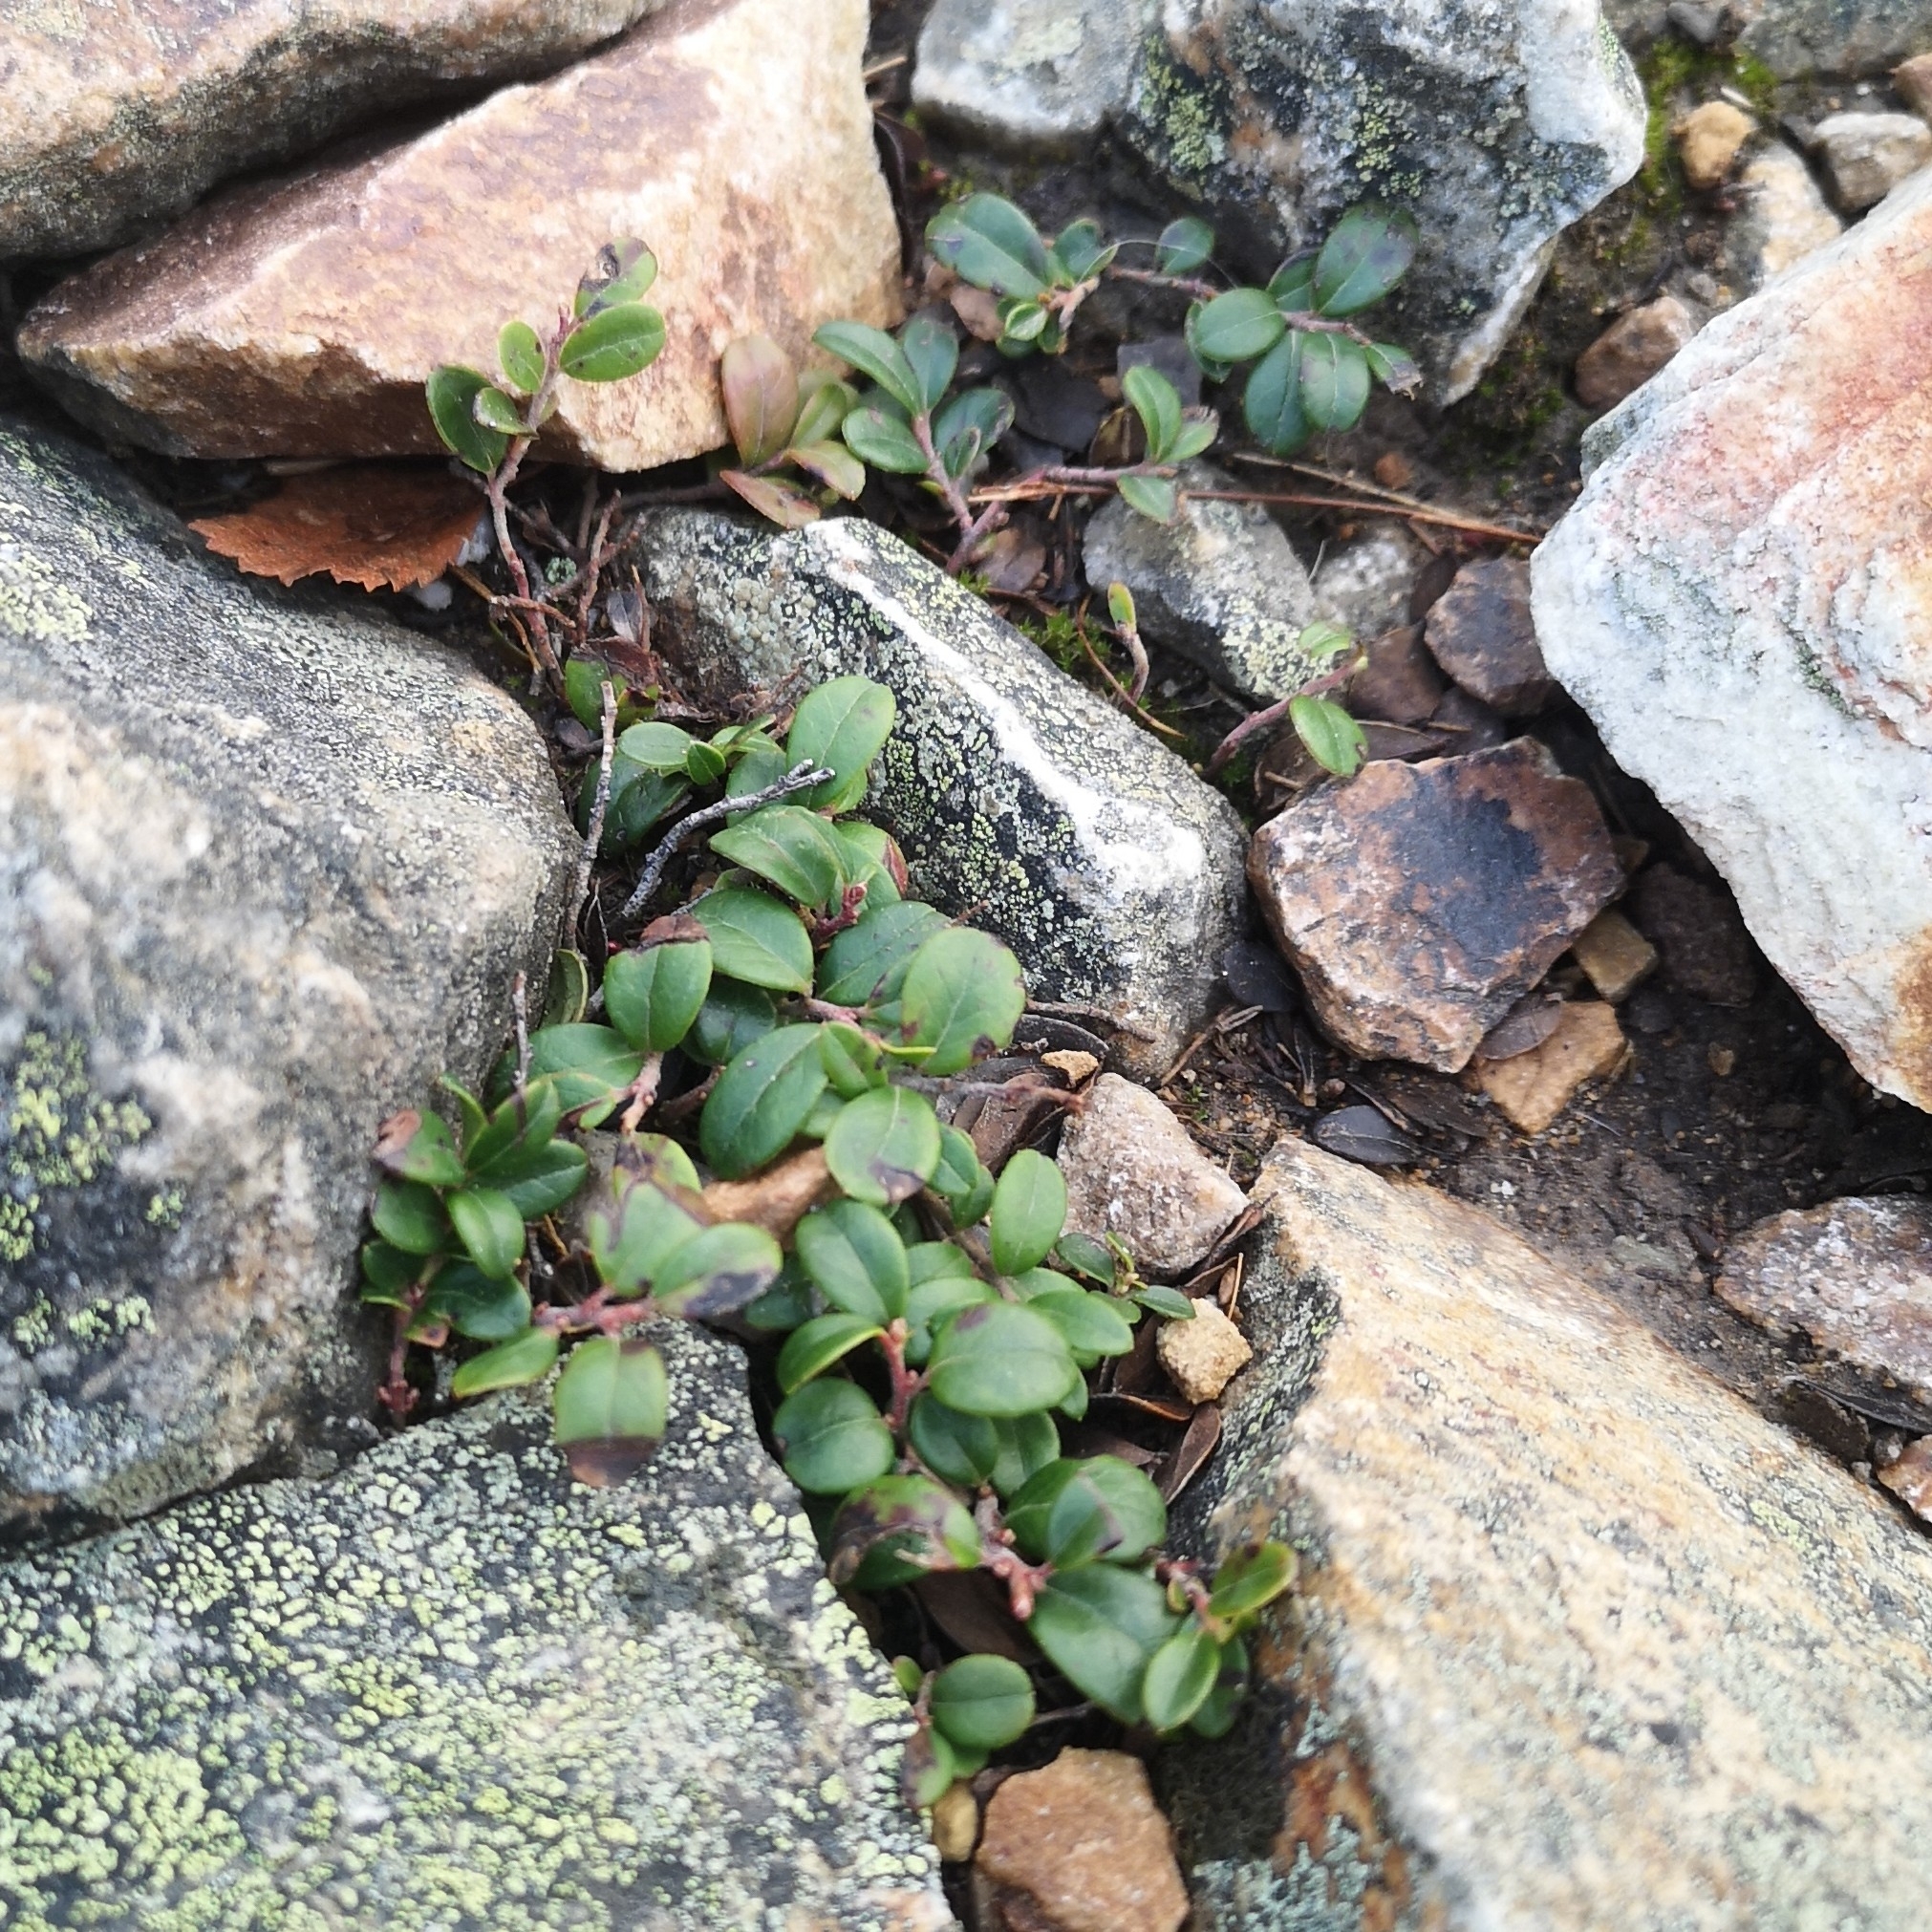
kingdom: Plantae
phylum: Tracheophyta
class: Magnoliopsida
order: Ericales
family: Ericaceae
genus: Vaccinium
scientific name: Vaccinium vitis-idaea
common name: Cowberry
